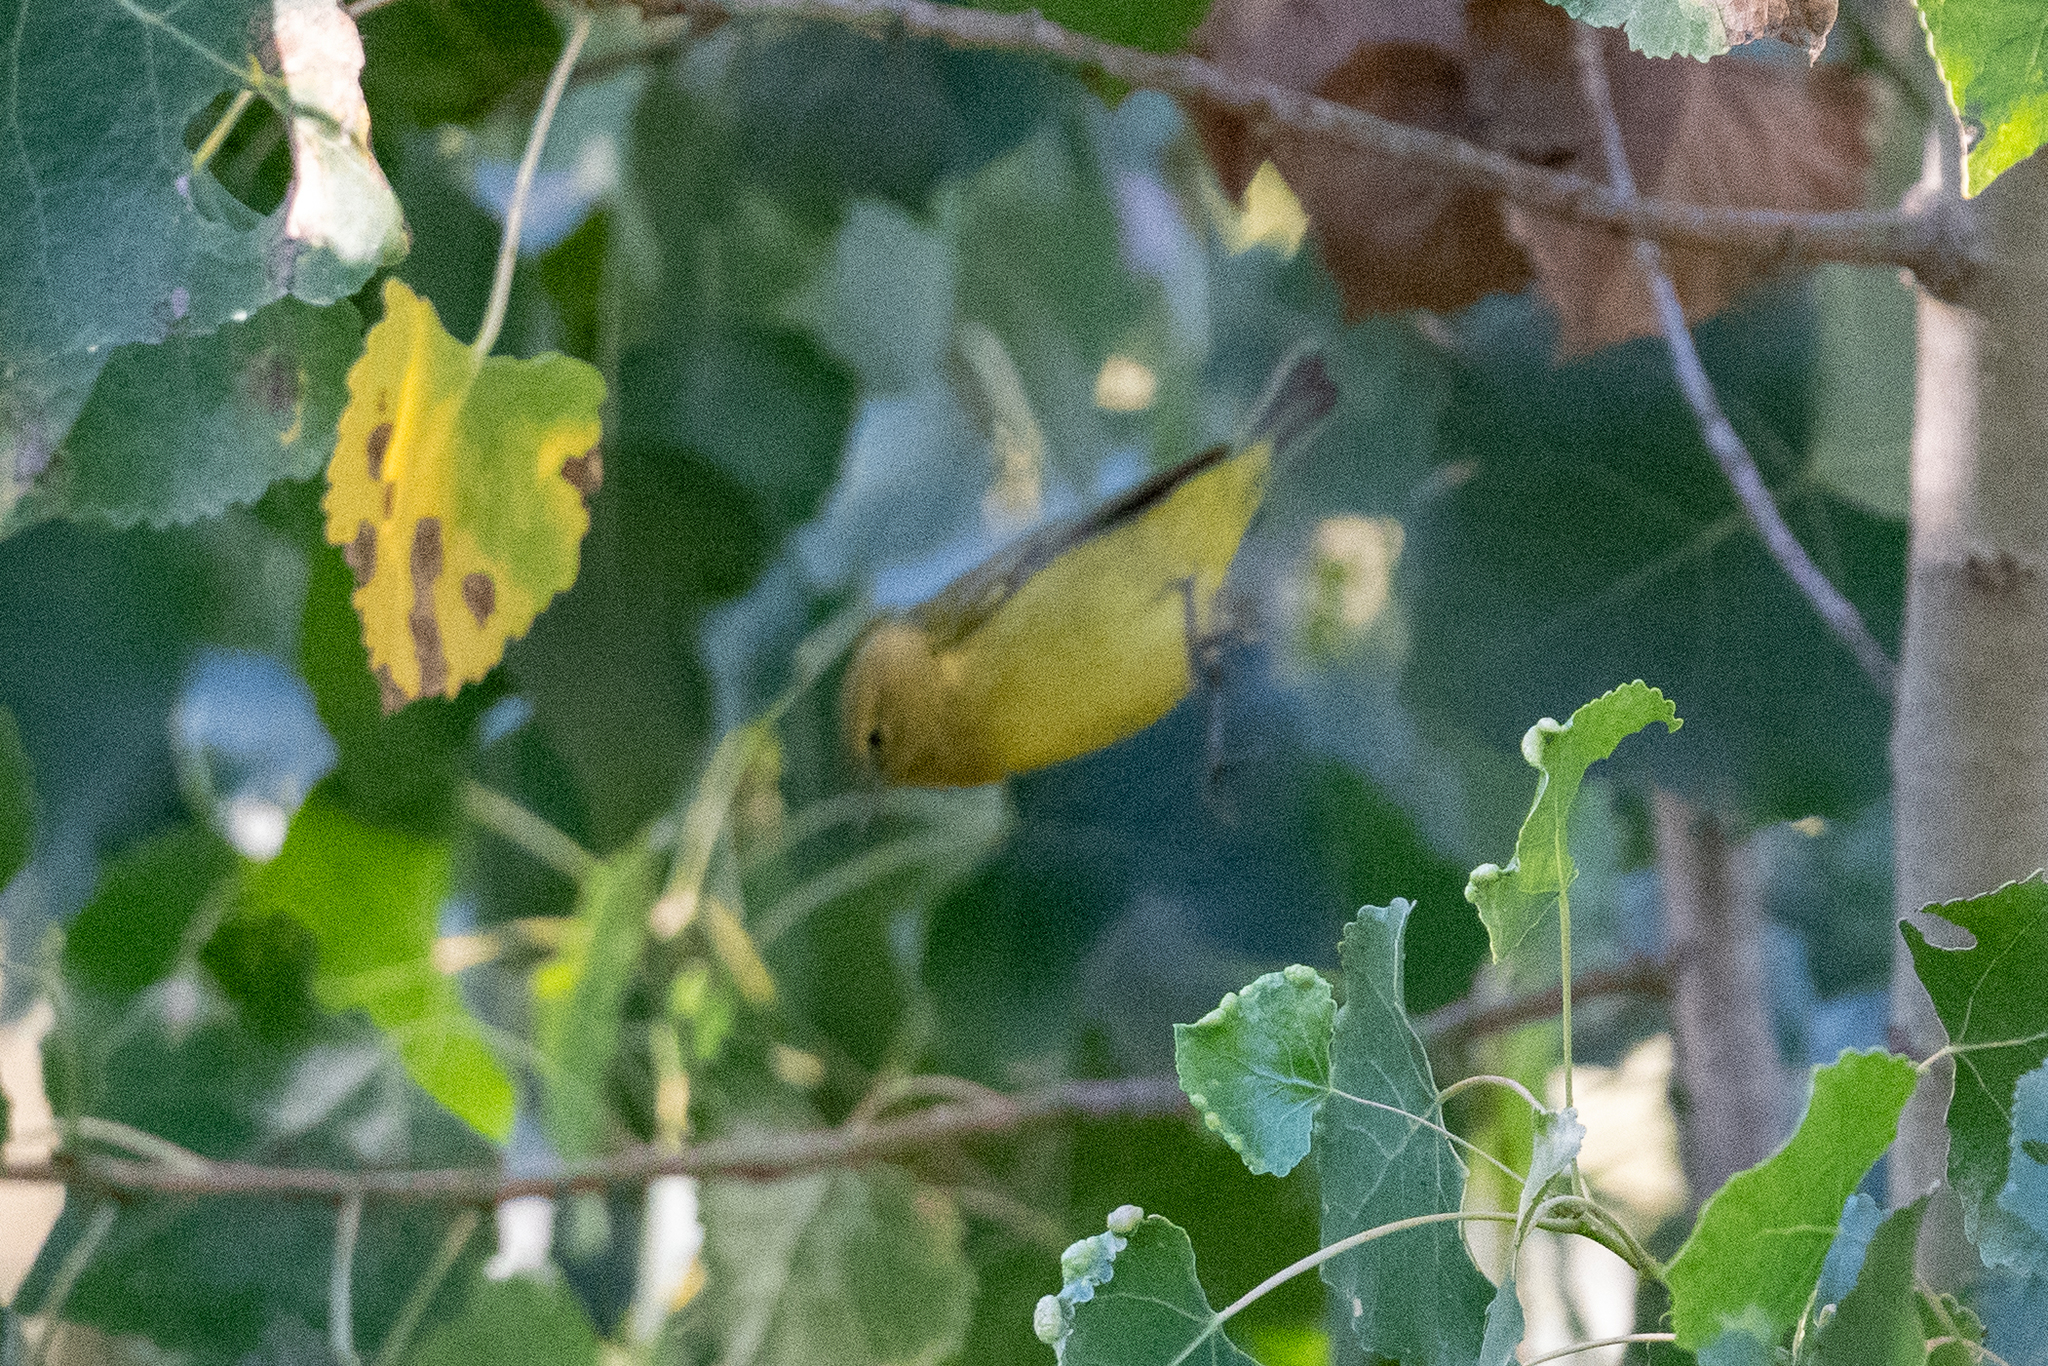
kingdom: Animalia
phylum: Chordata
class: Aves
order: Passeriformes
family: Parulidae
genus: Leiothlypis
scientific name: Leiothlypis celata
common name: Orange-crowned warbler
